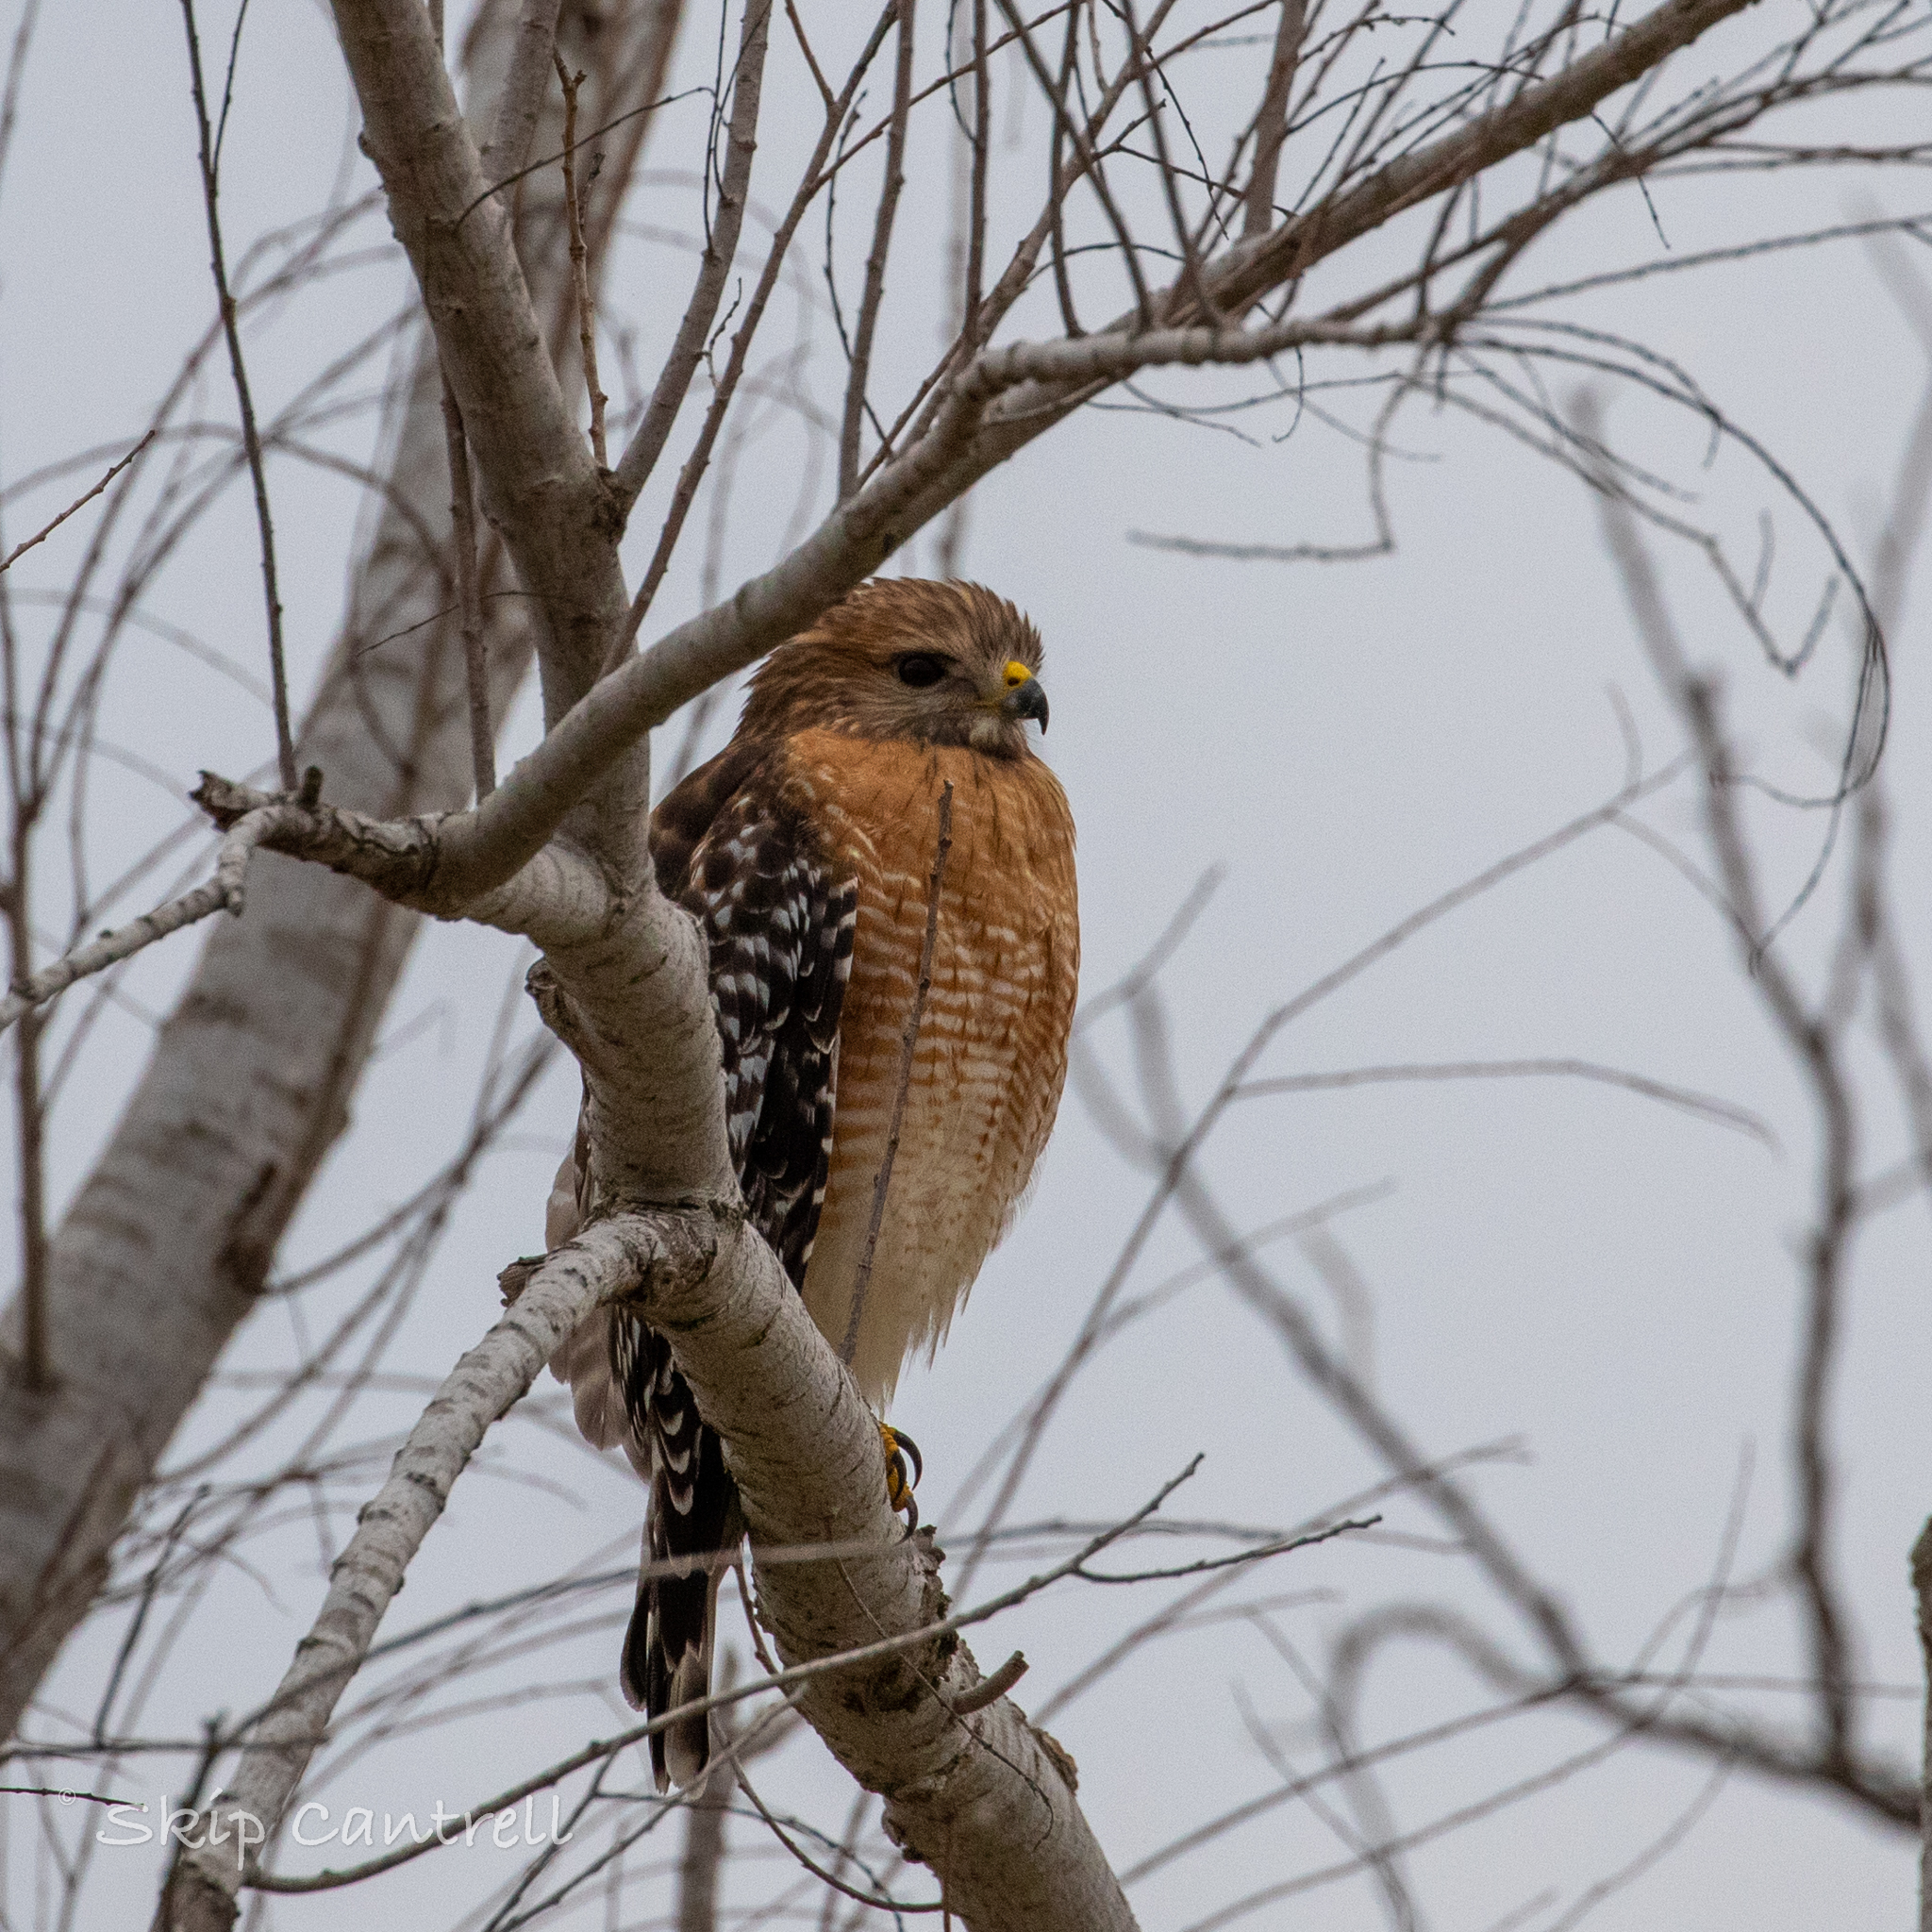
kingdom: Animalia
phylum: Chordata
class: Aves
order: Accipitriformes
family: Accipitridae
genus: Buteo
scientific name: Buteo lineatus
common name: Red-shouldered hawk
